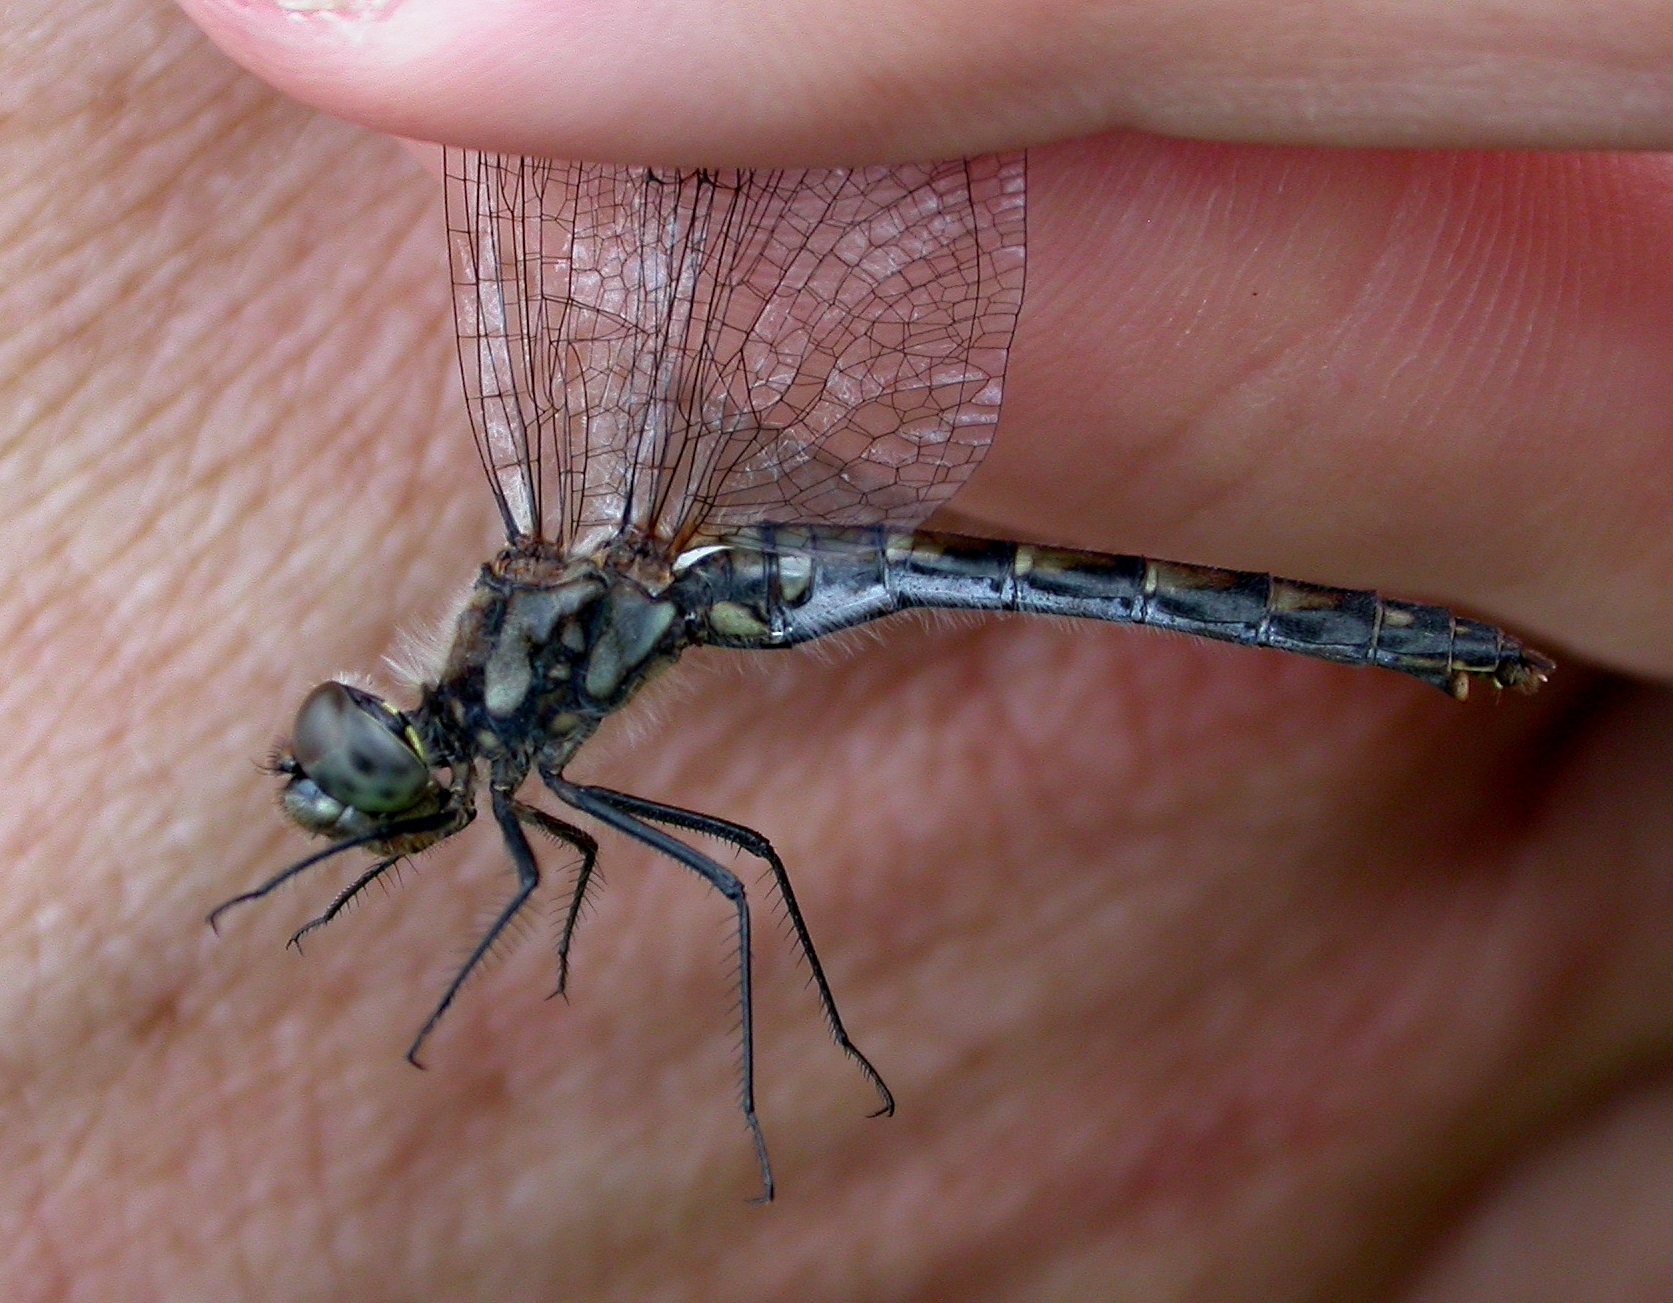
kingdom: Animalia
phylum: Arthropoda
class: Insecta
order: Odonata
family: Libellulidae
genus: Sympetrum
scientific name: Sympetrum danae
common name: Black darter
